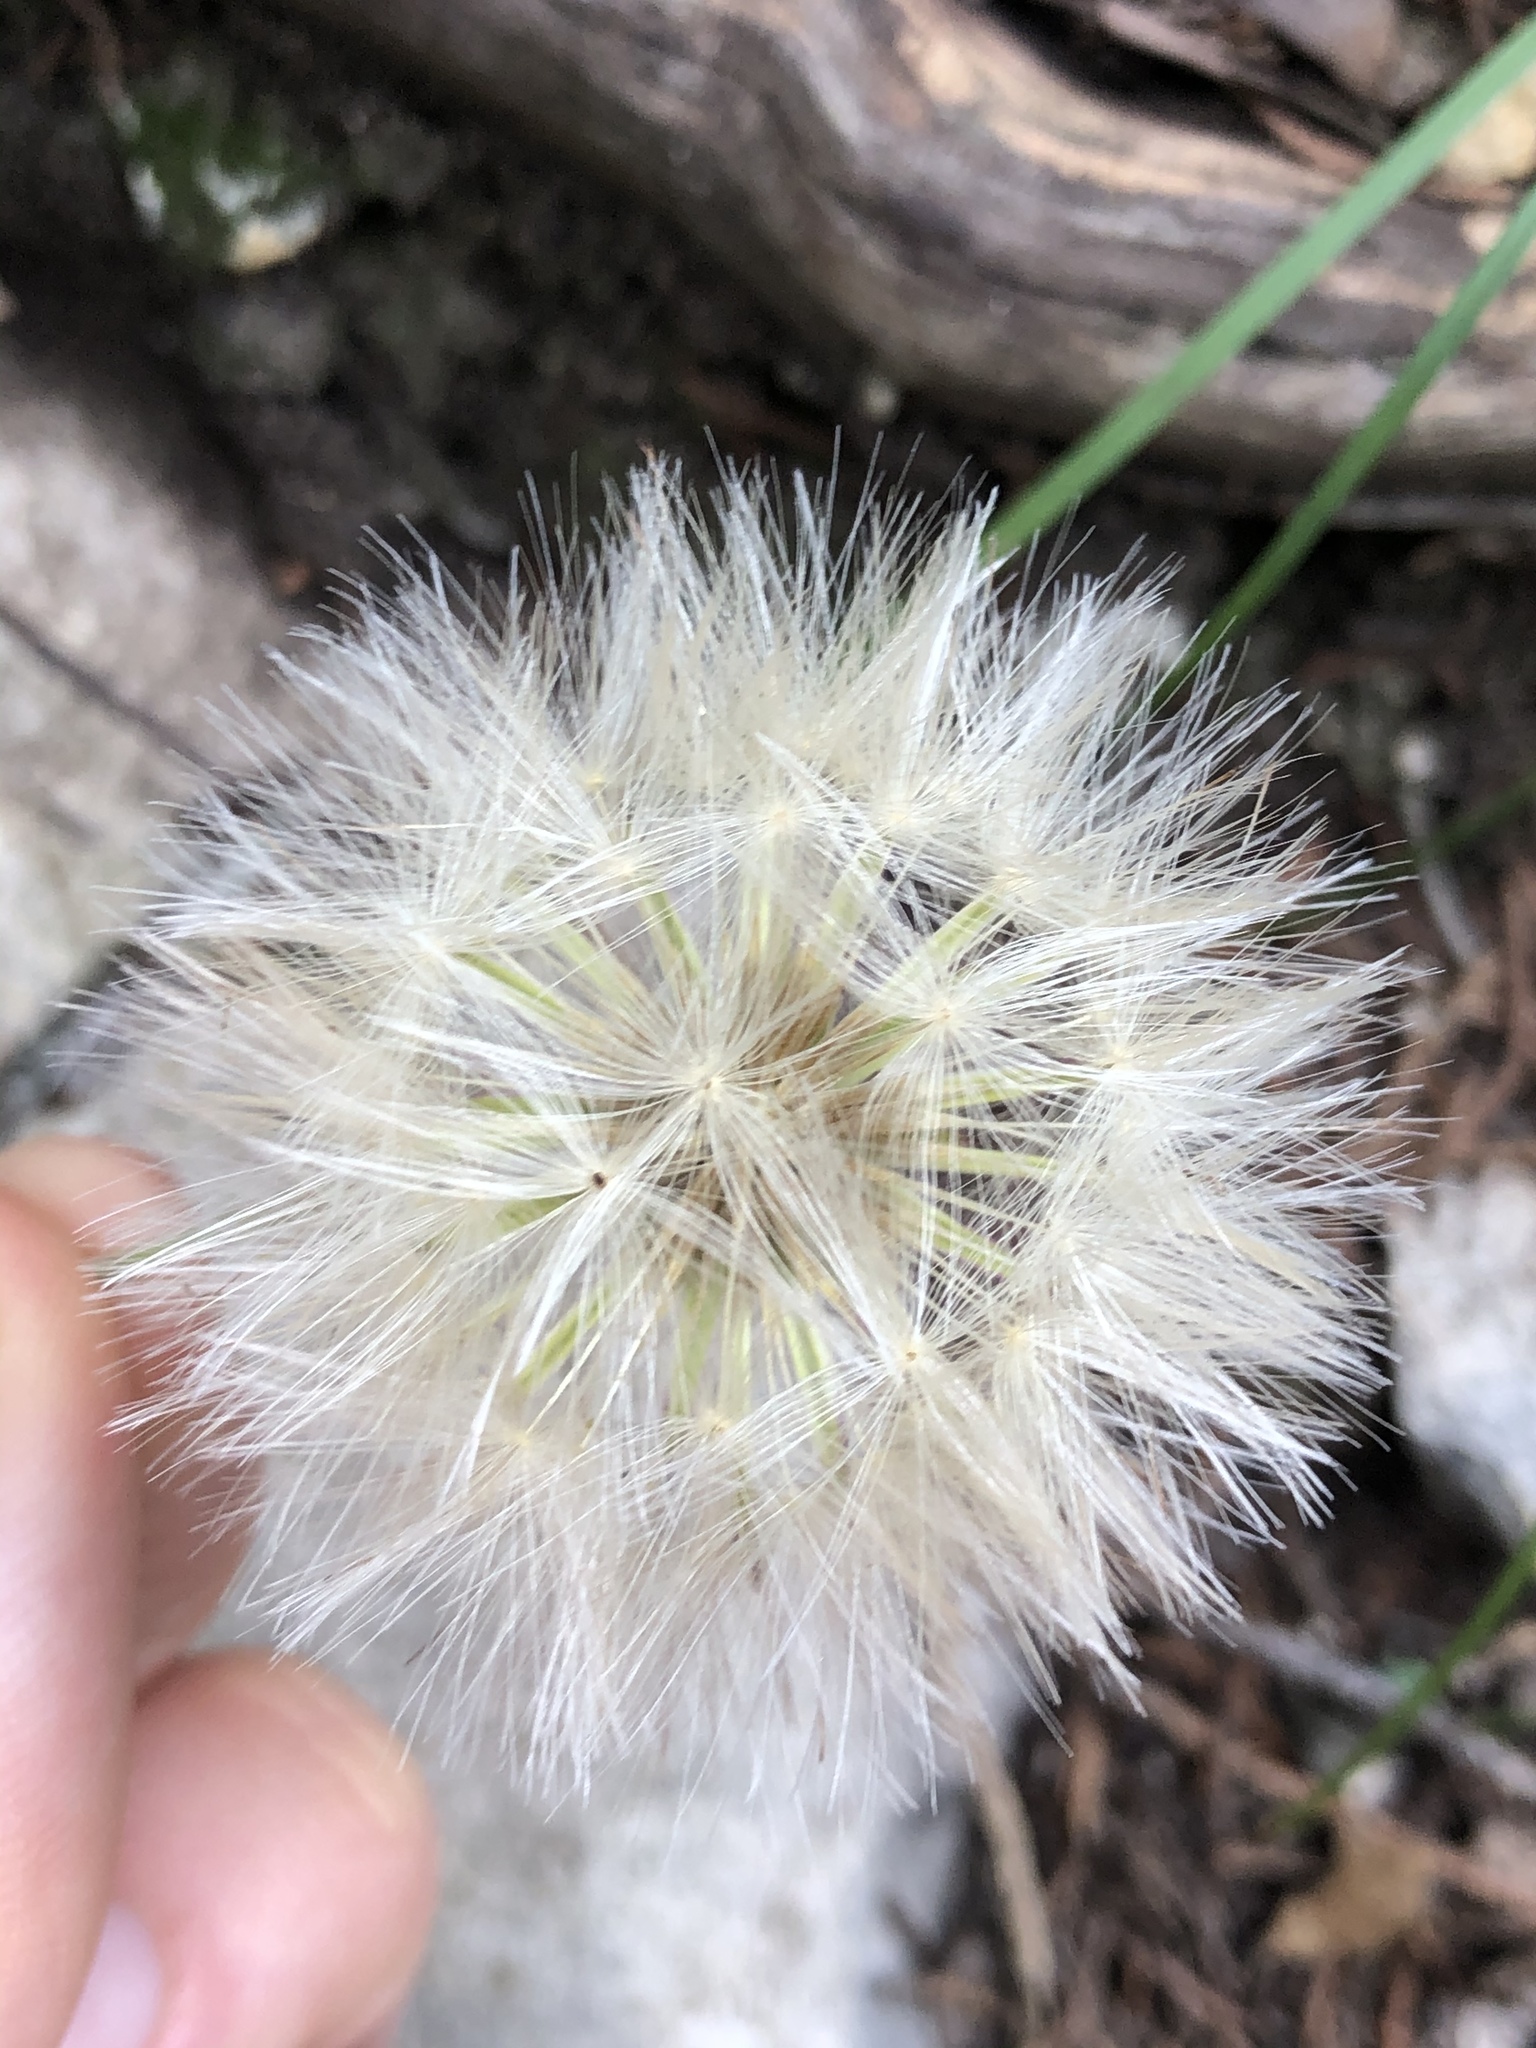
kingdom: Plantae
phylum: Tracheophyta
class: Magnoliopsida
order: Asterales
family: Asteraceae
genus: Chaptalia
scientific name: Chaptalia texana
